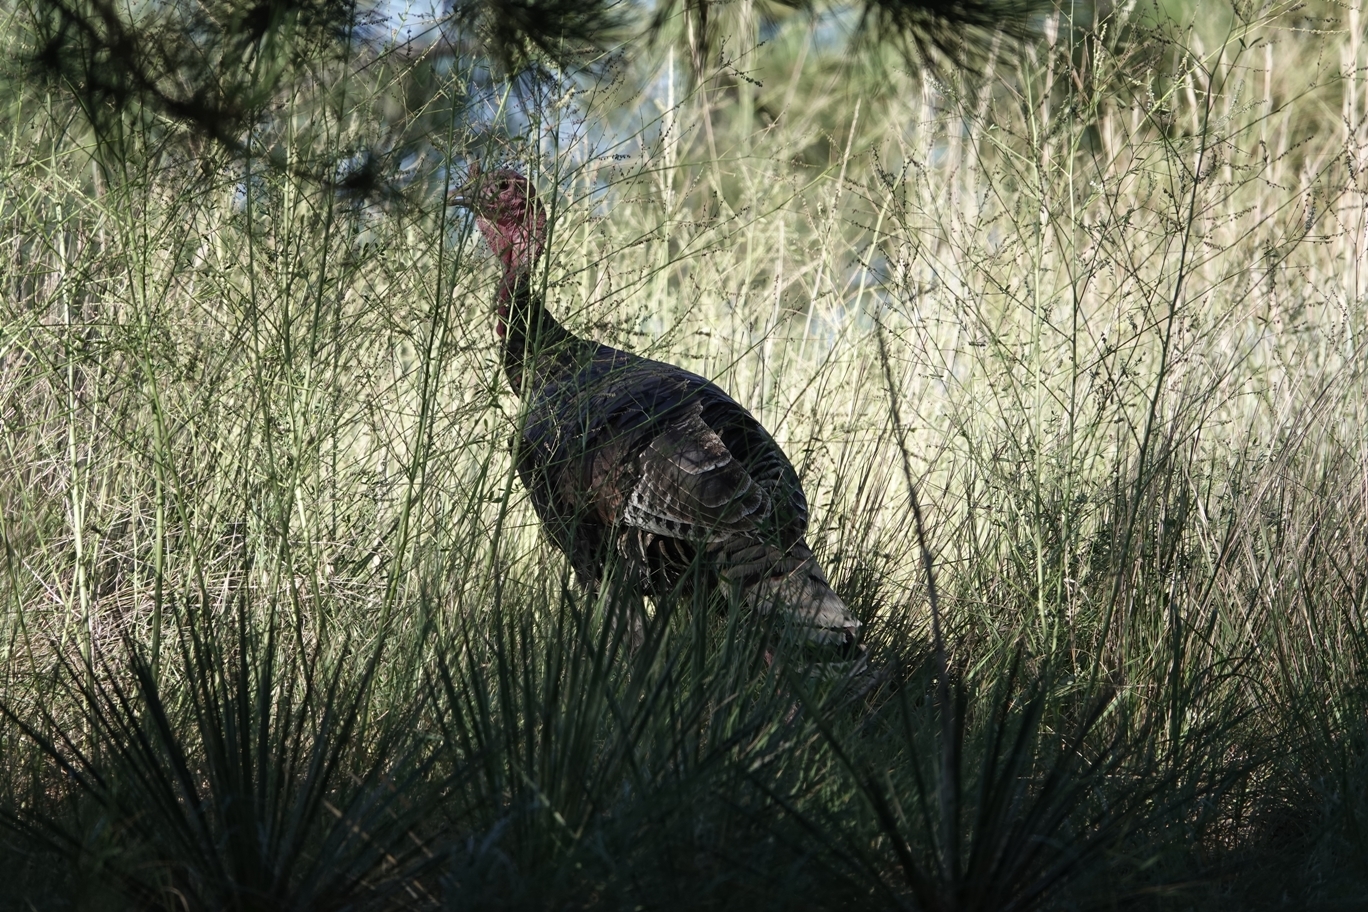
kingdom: Animalia
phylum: Chordata
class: Aves
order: Galliformes
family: Phasianidae
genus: Meleagris
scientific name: Meleagris gallopavo
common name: Wild turkey
